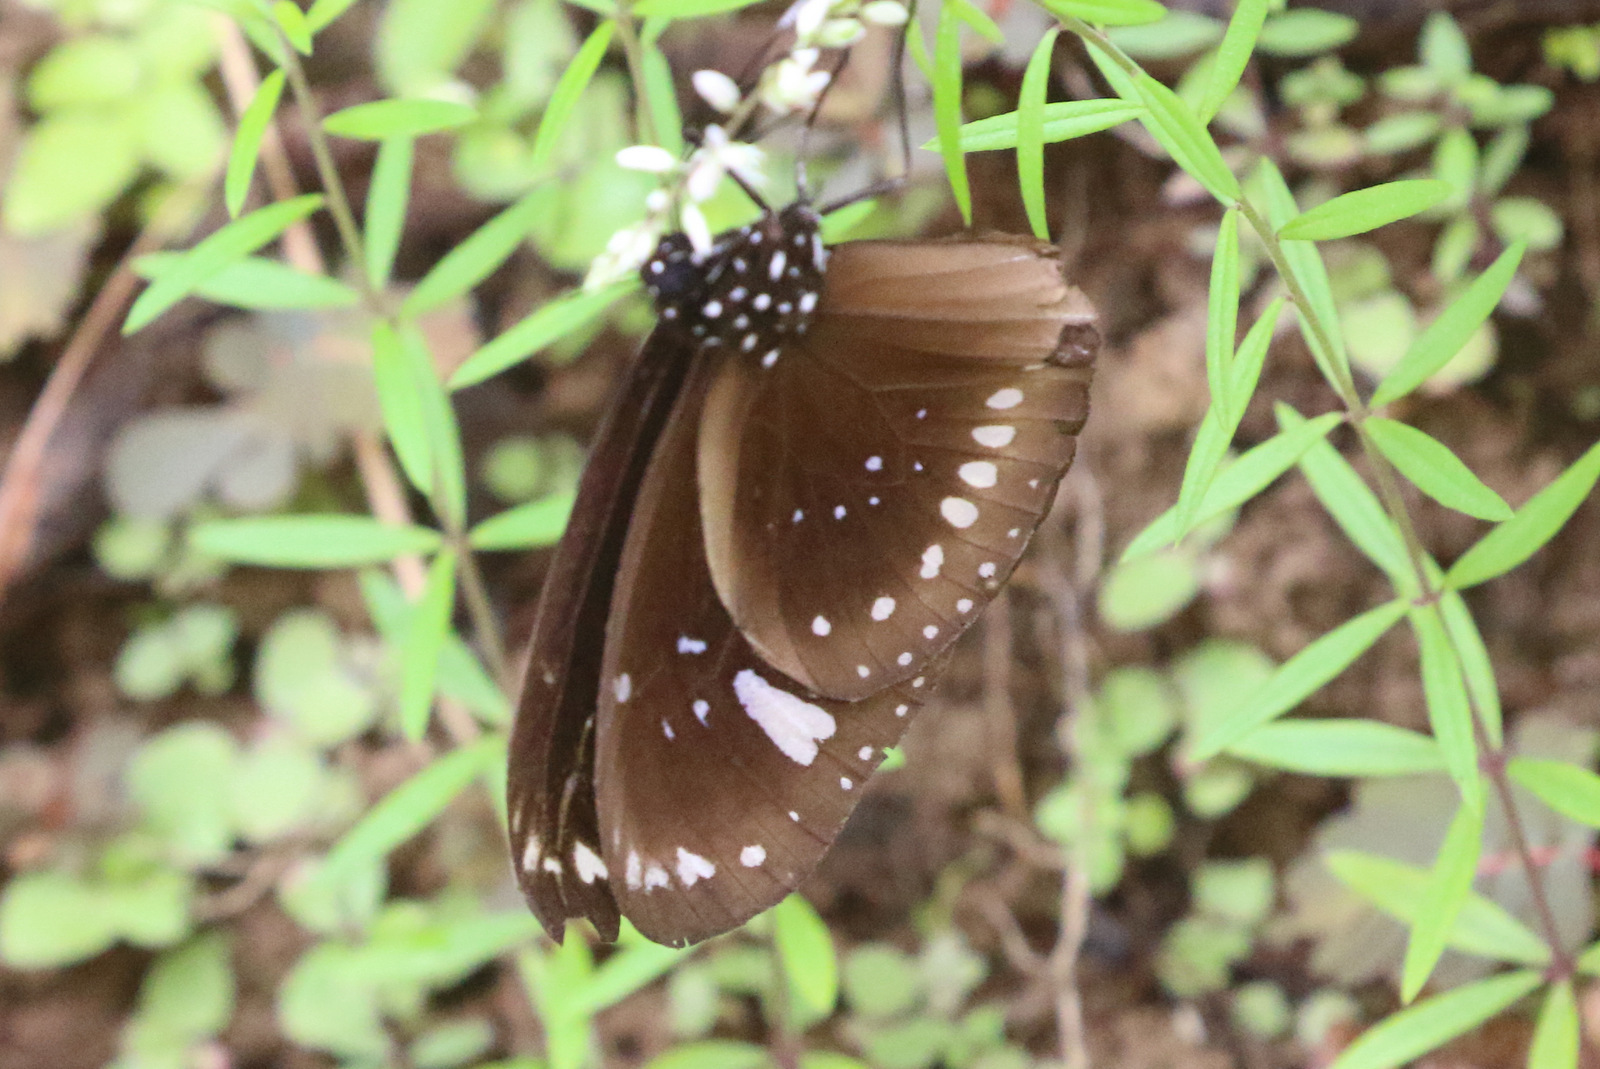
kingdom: Animalia
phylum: Arthropoda
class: Insecta
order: Lepidoptera
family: Nymphalidae
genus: Euploea
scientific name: Euploea lewinii
